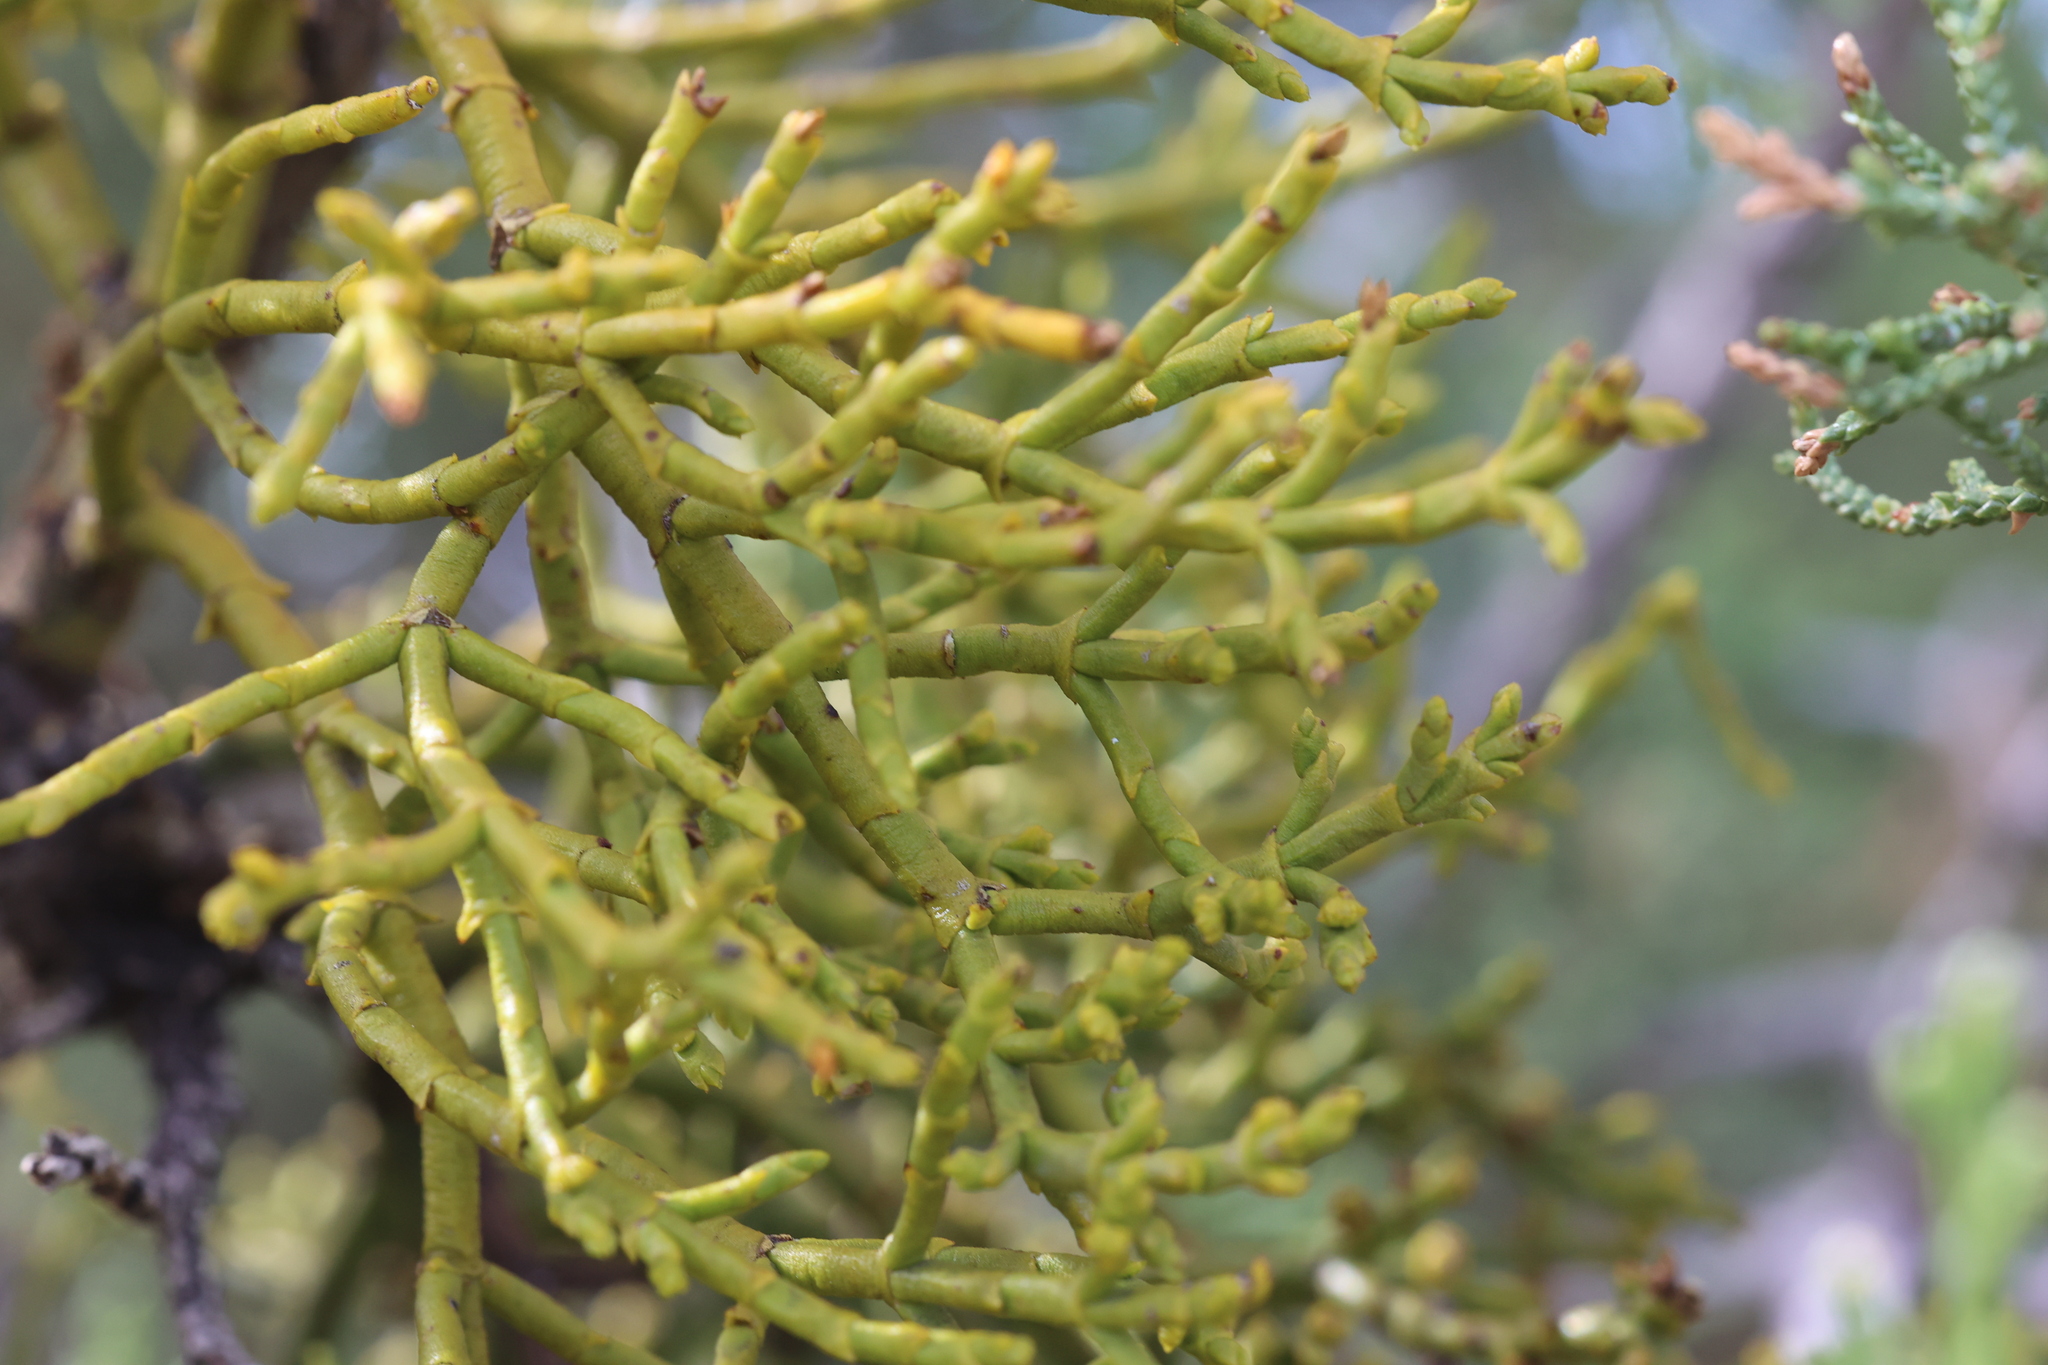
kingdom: Plantae
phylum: Tracheophyta
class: Magnoliopsida
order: Santalales
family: Viscaceae
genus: Phoradendron
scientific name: Phoradendron juniperinum
